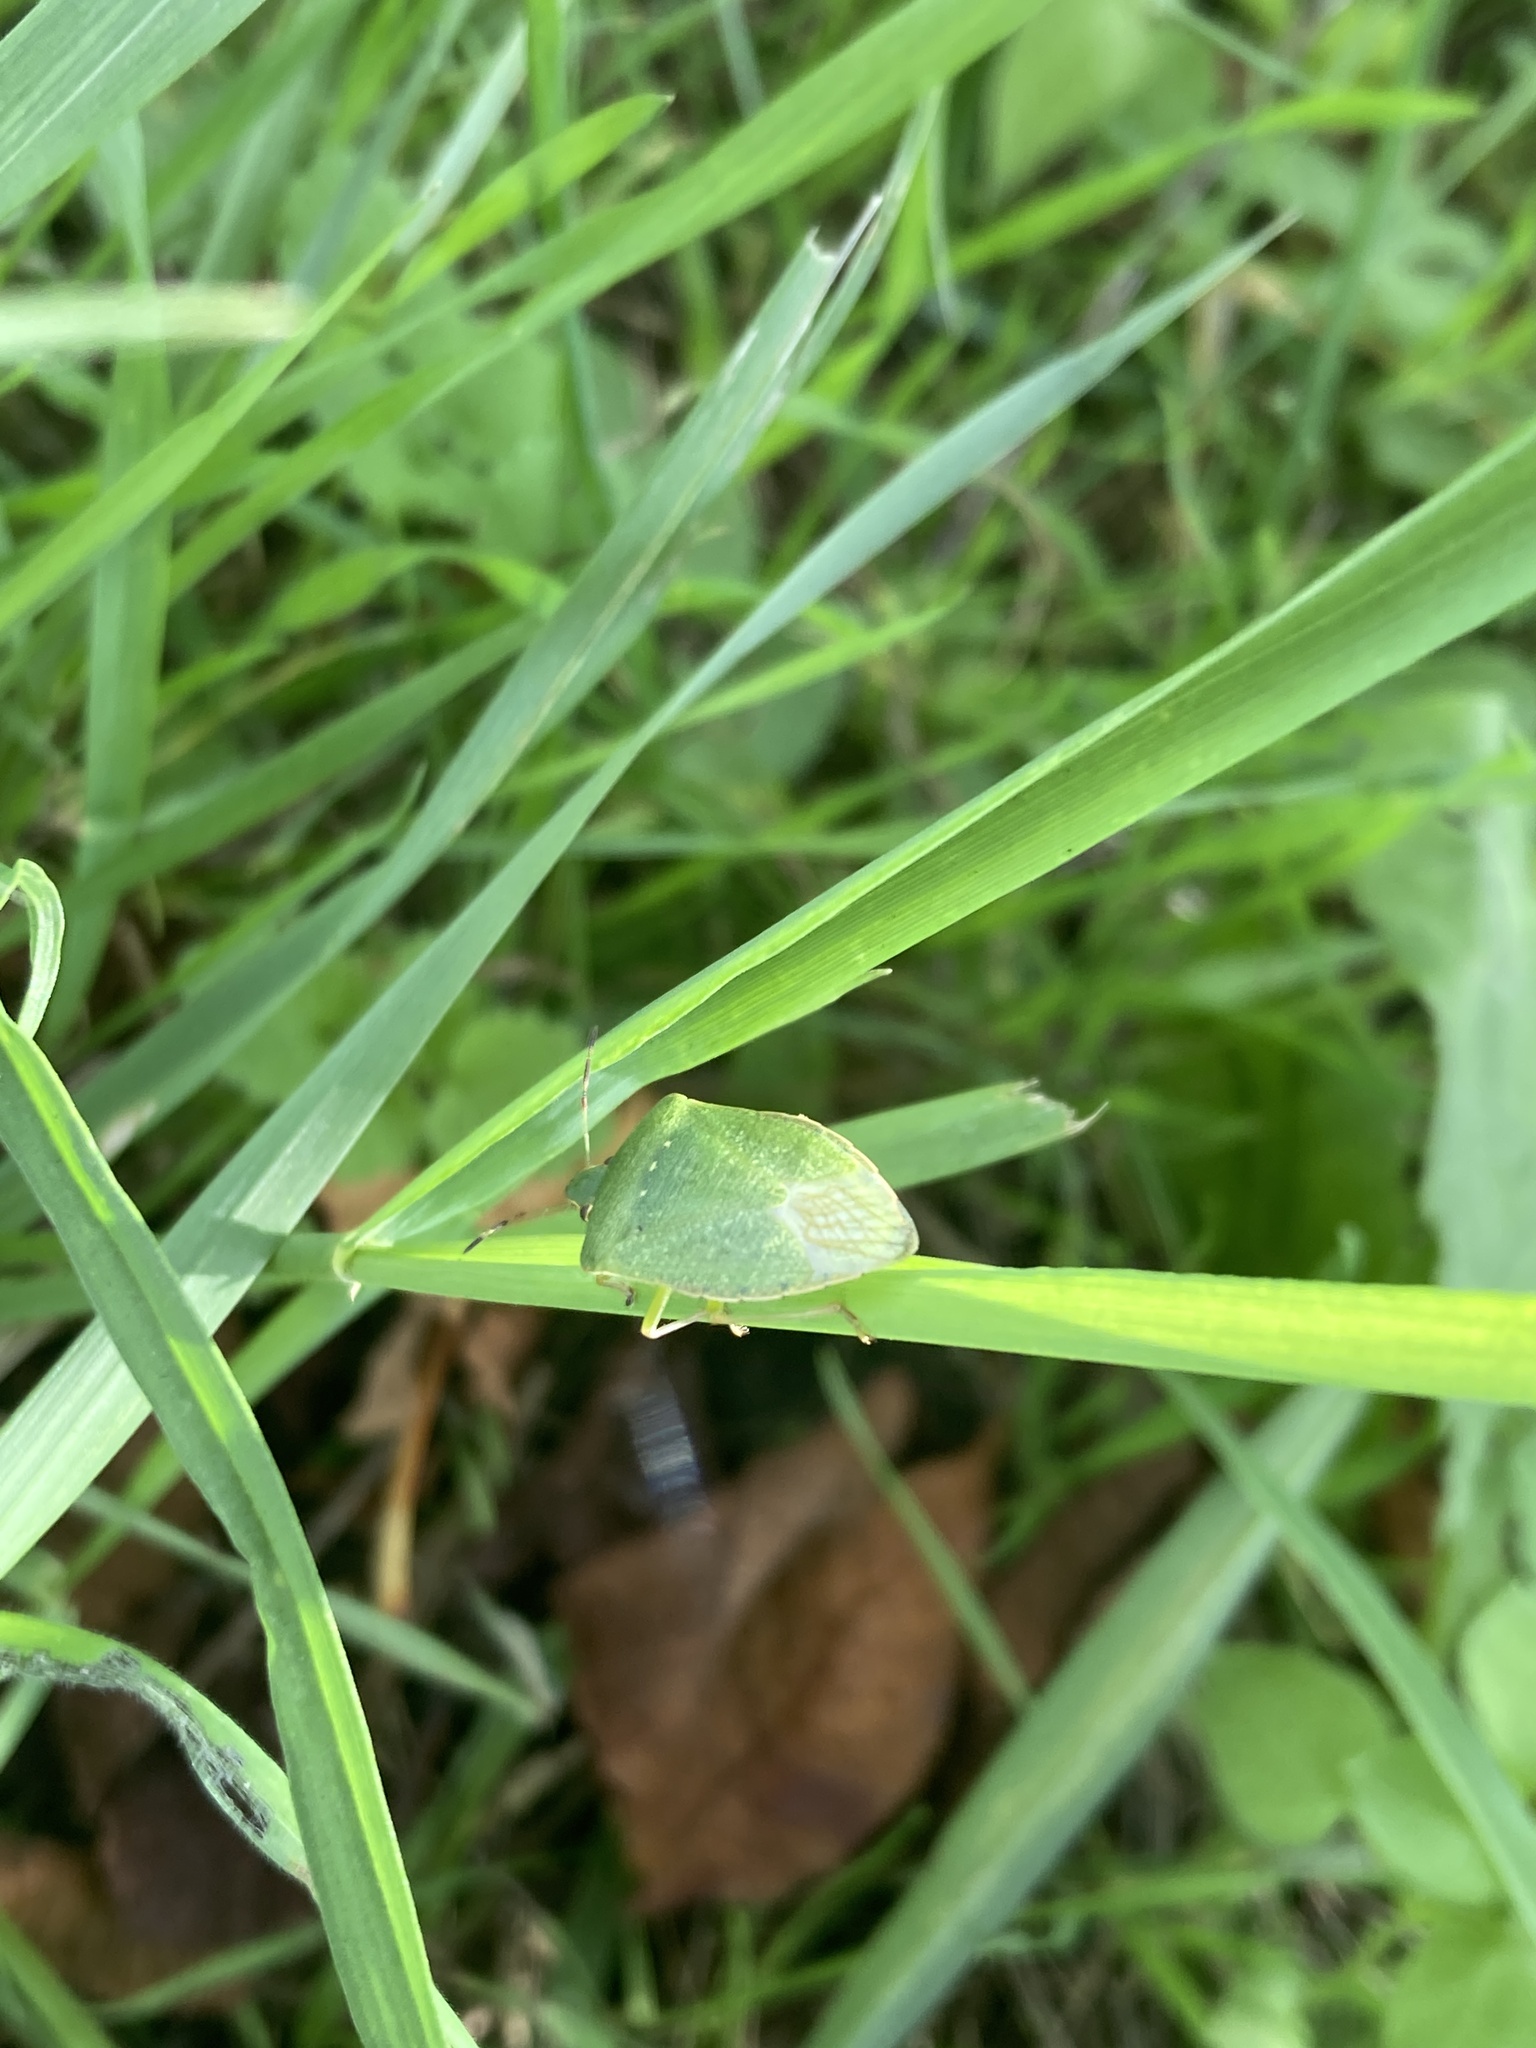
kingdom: Animalia
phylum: Arthropoda
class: Insecta
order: Hemiptera
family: Pentatomidae
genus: Nezara
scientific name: Nezara viridula
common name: Southern green stink bug
